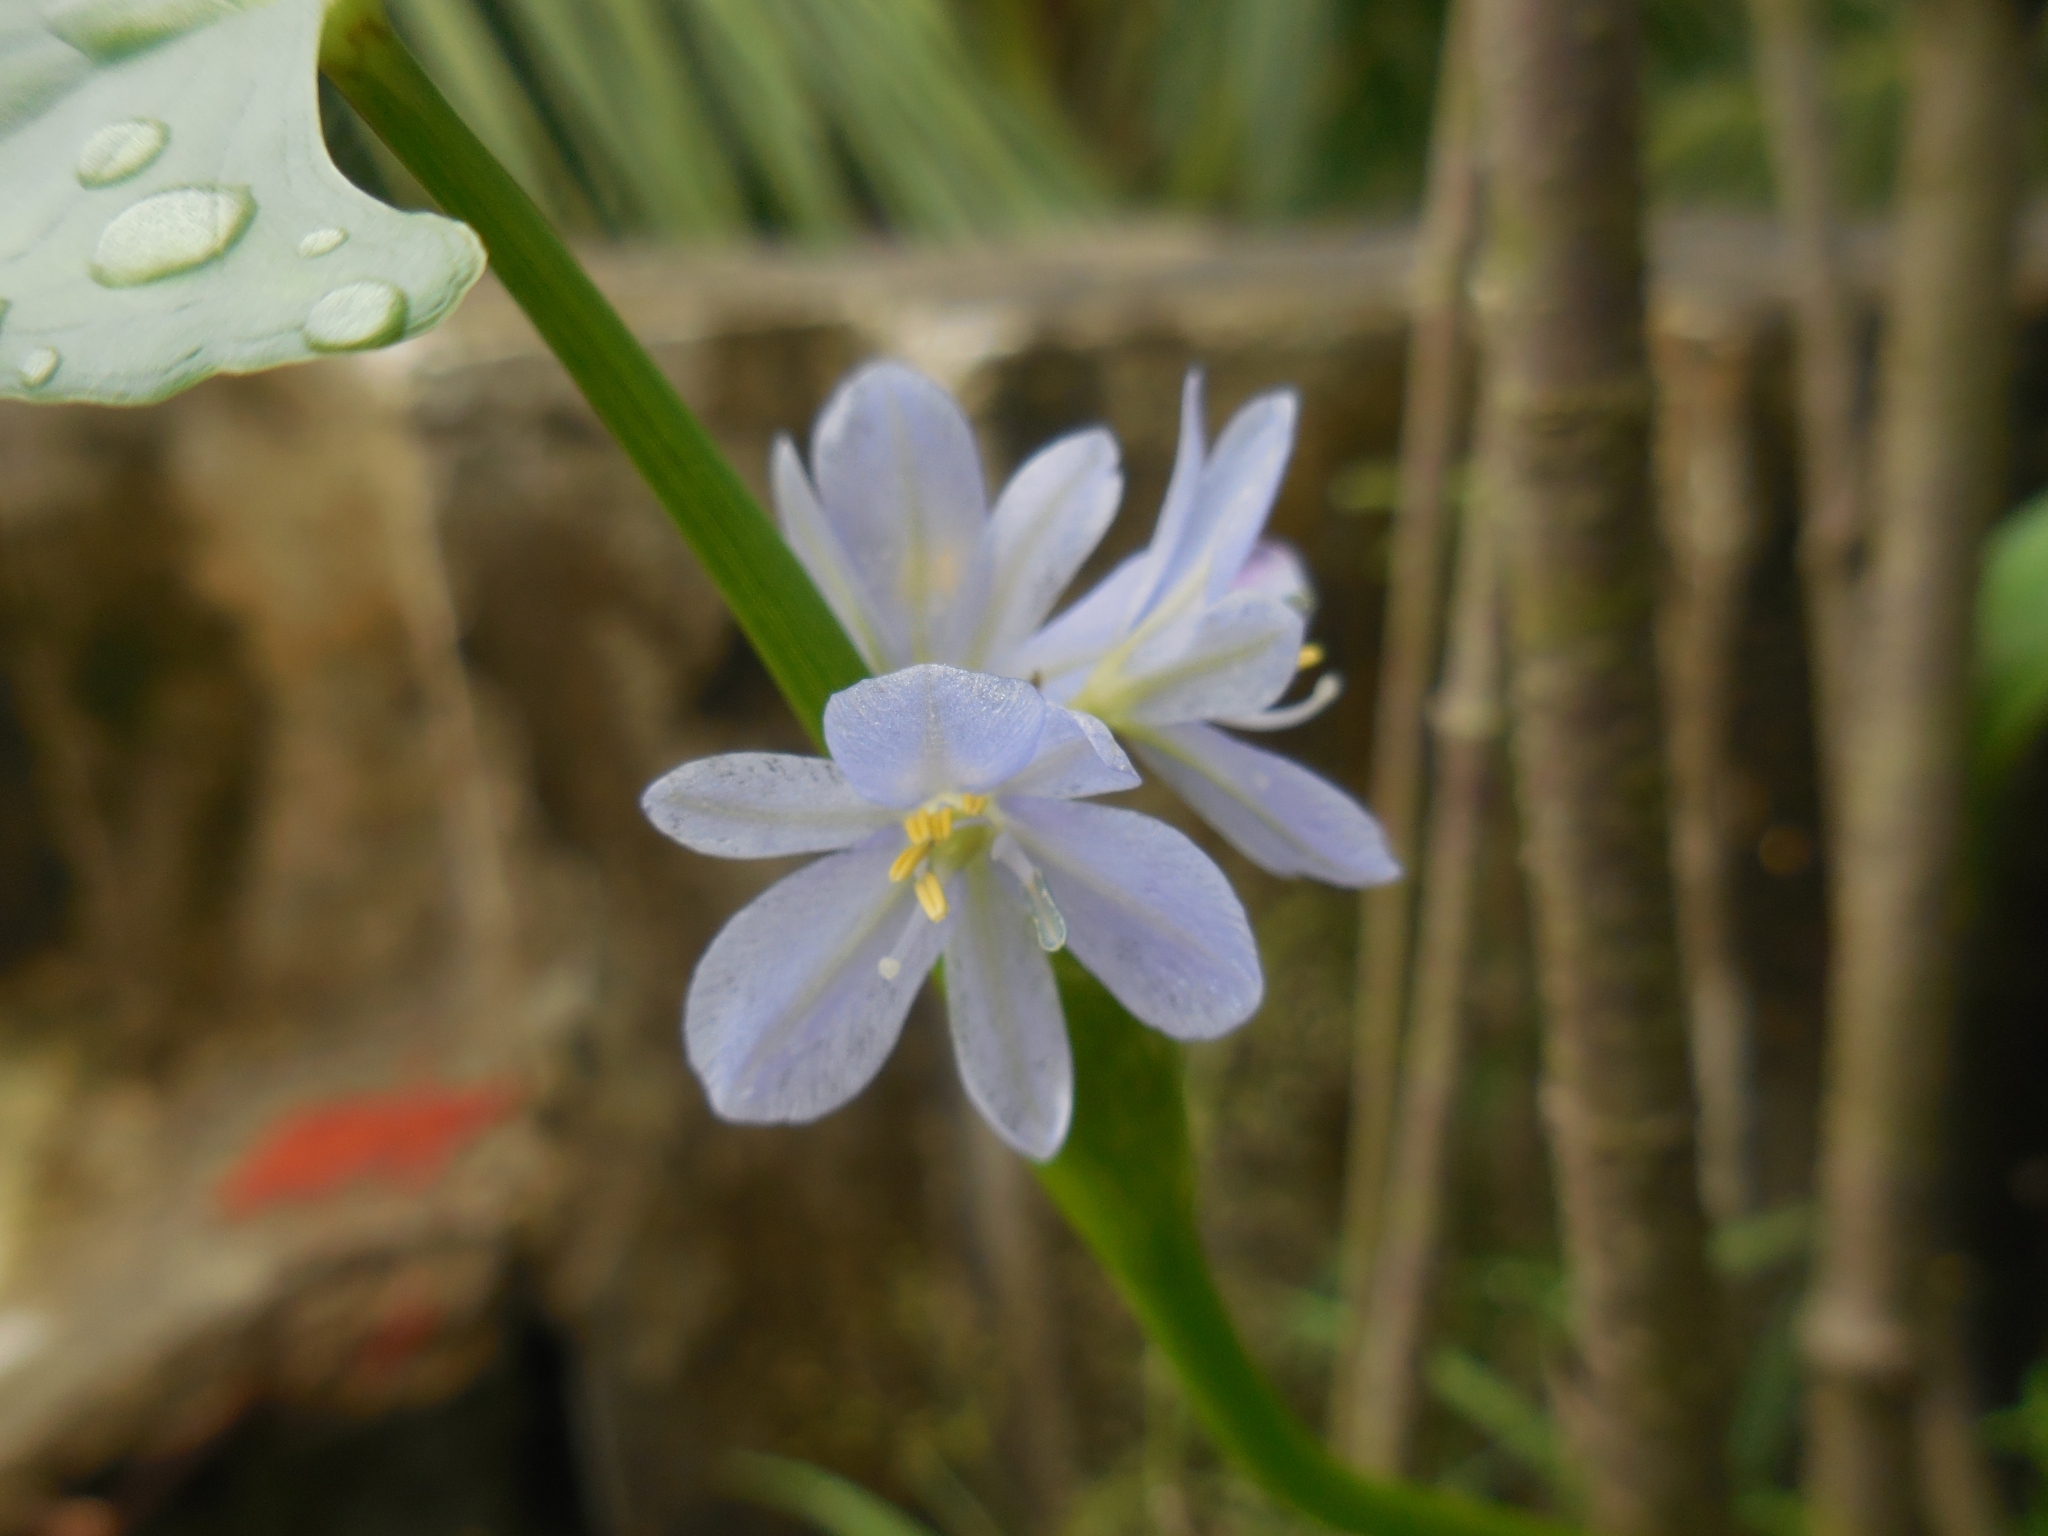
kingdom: Plantae
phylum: Tracheophyta
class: Liliopsida
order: Commelinales
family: Pontederiaceae
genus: Pontederia
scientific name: Pontederia vaginalis
